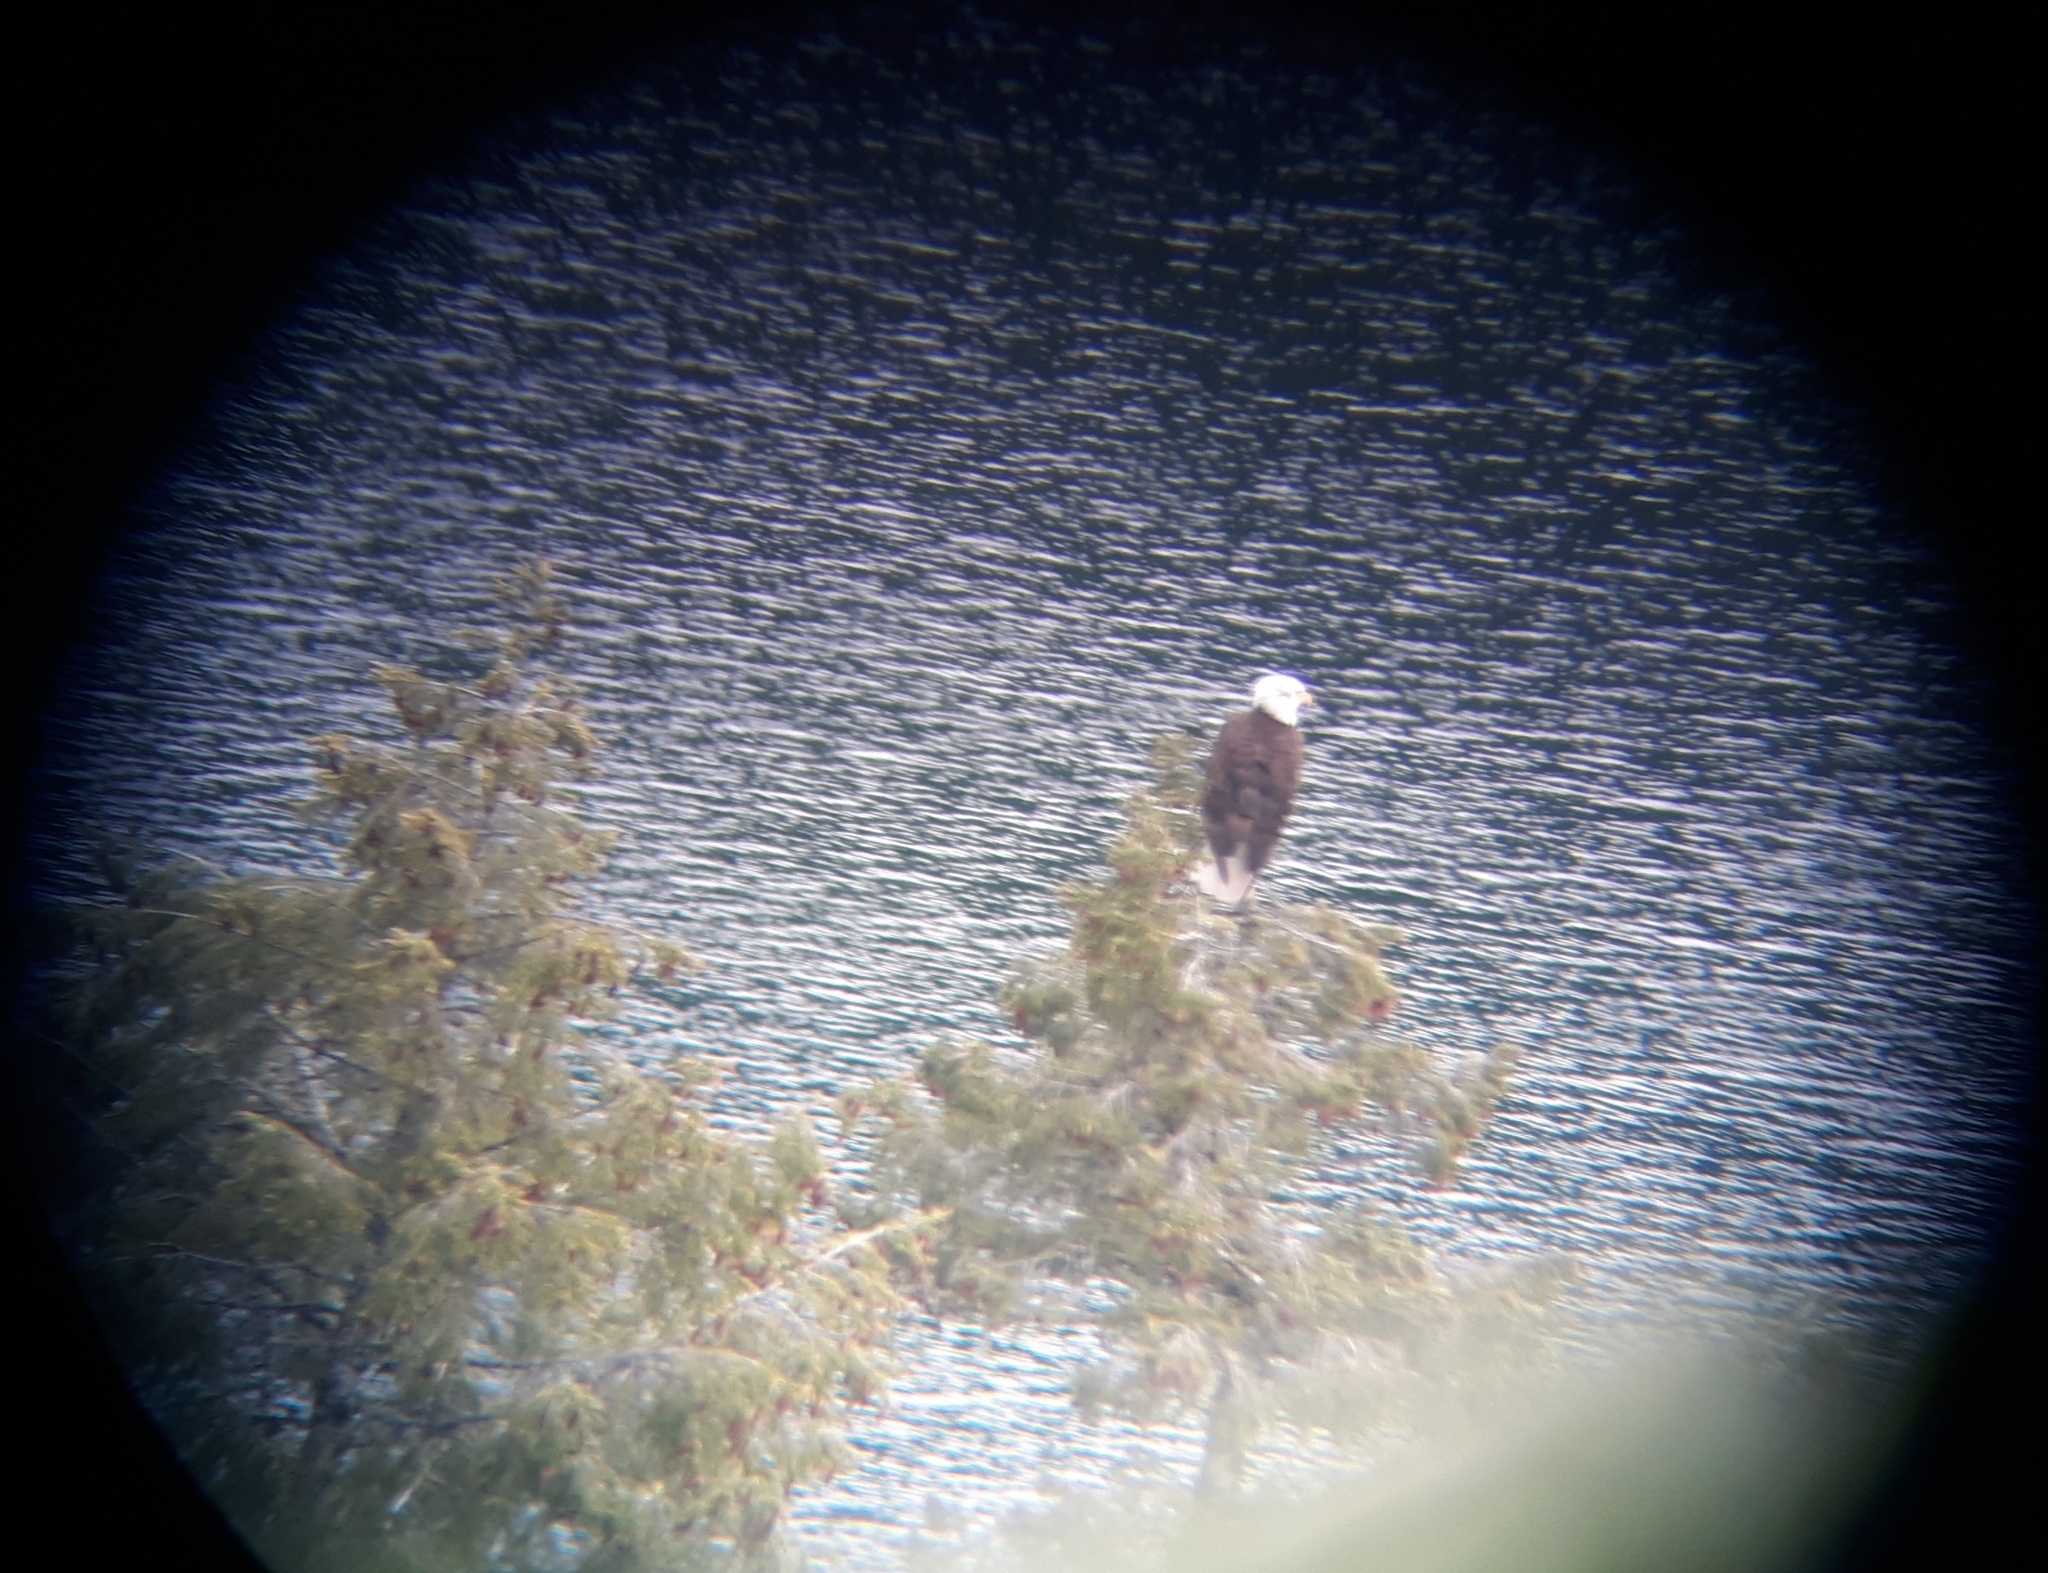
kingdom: Animalia
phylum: Chordata
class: Aves
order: Accipitriformes
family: Accipitridae
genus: Haliaeetus
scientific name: Haliaeetus leucocephalus
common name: Bald eagle
